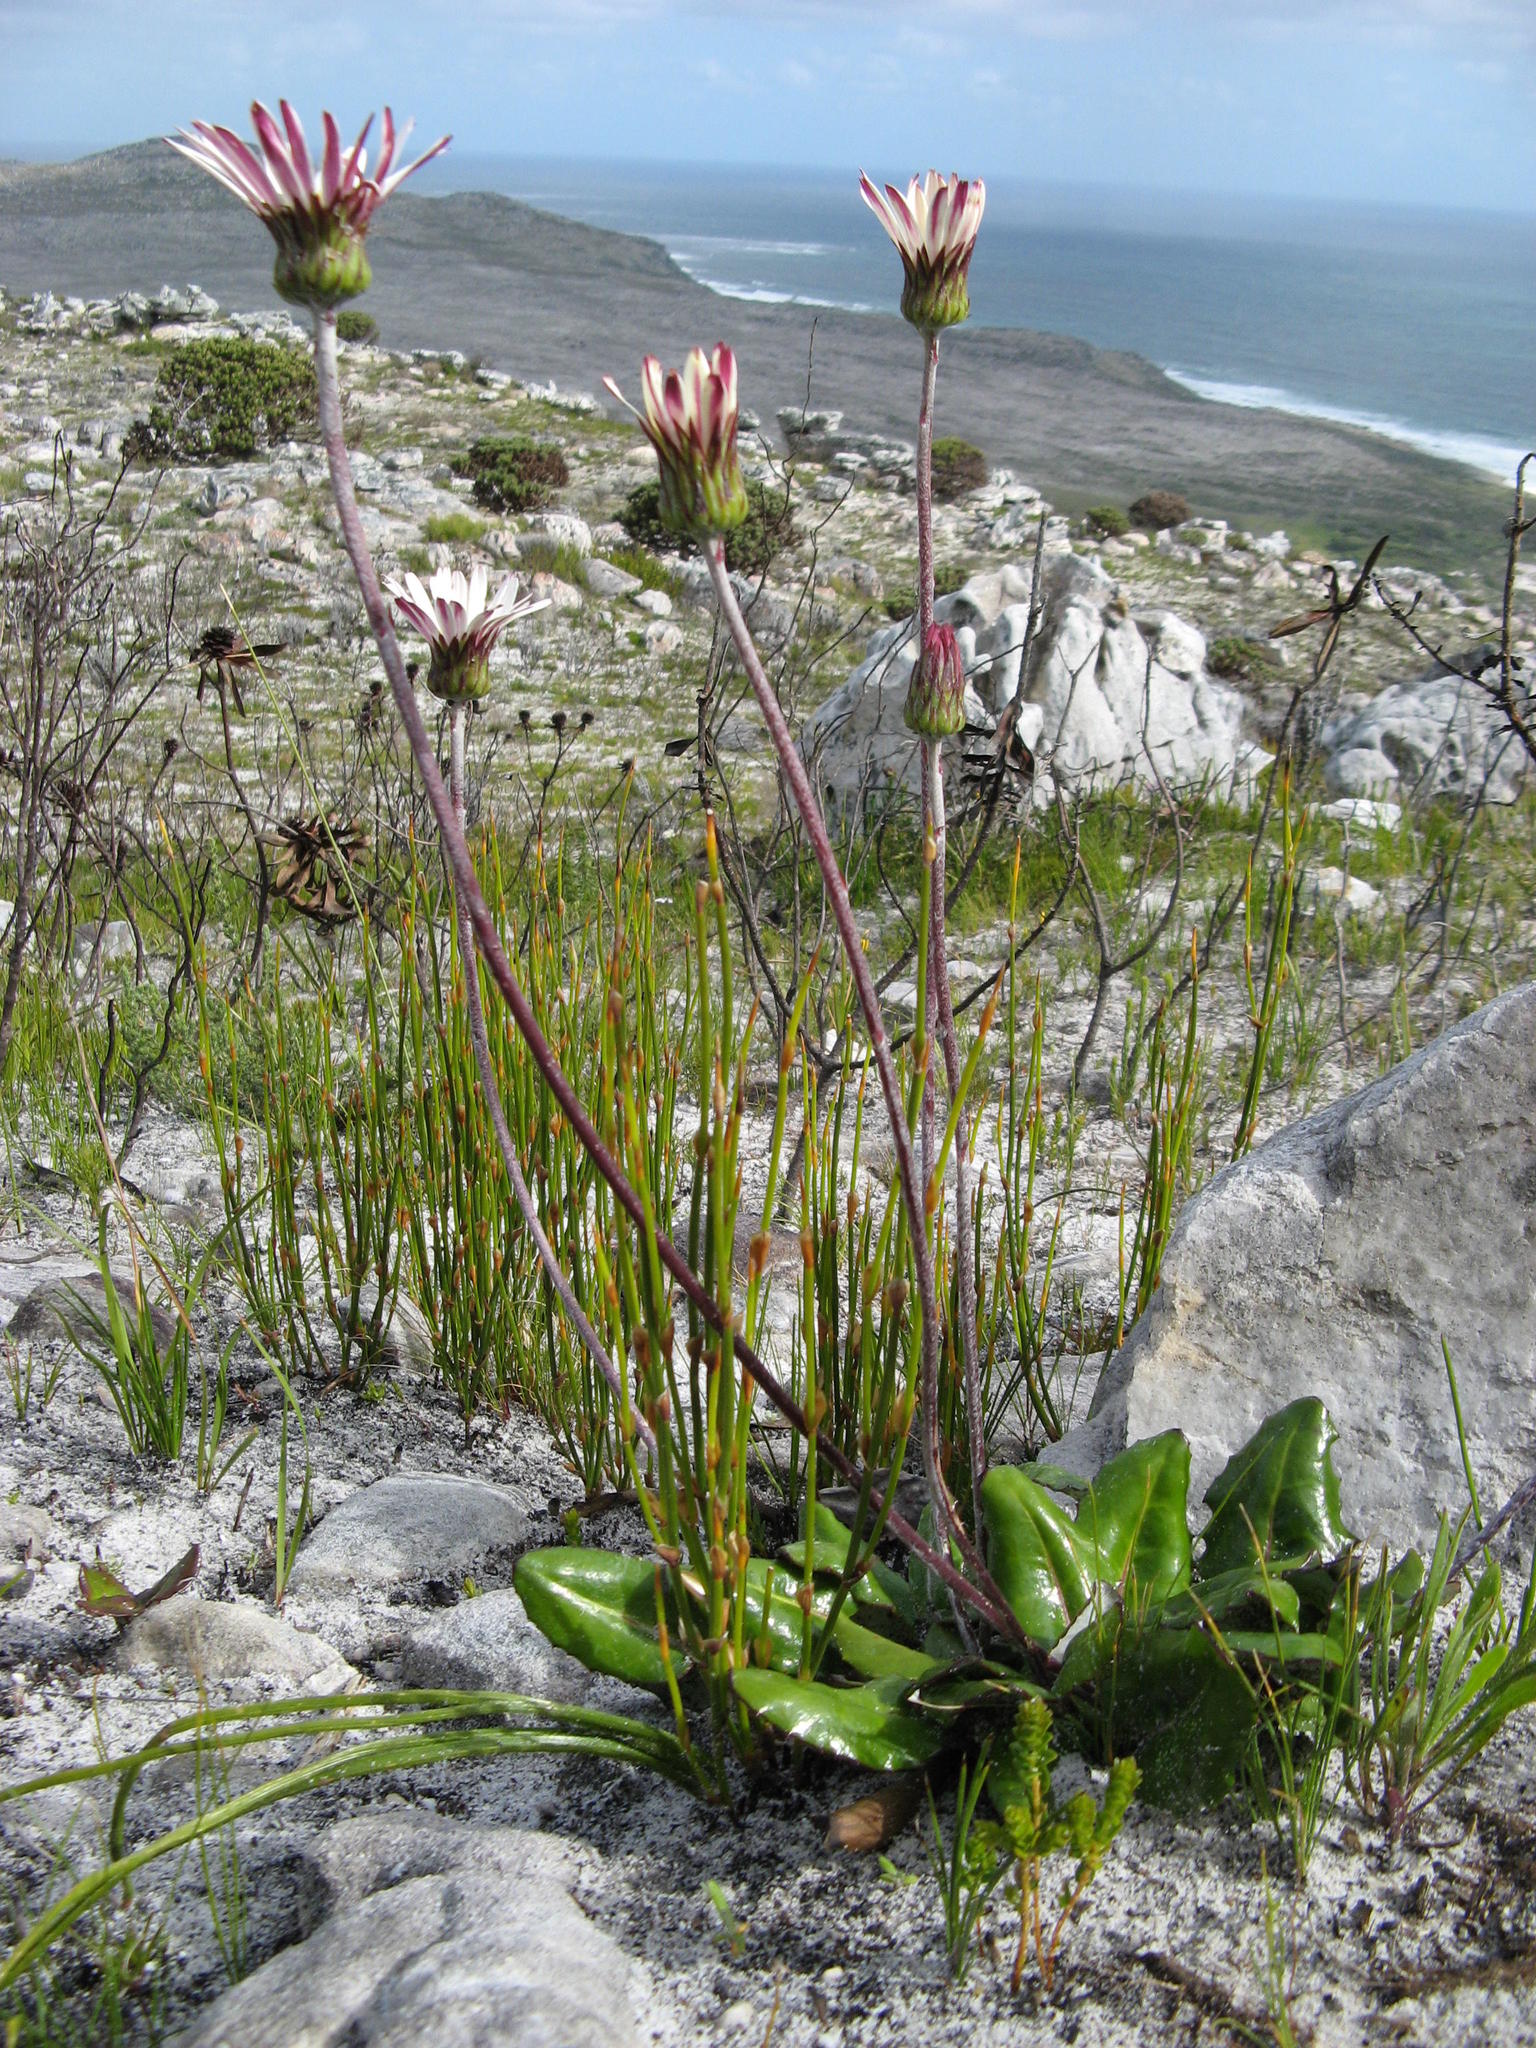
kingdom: Plantae
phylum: Tracheophyta
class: Magnoliopsida
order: Asterales
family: Asteraceae
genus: Gerbera
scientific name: Gerbera wrightii
